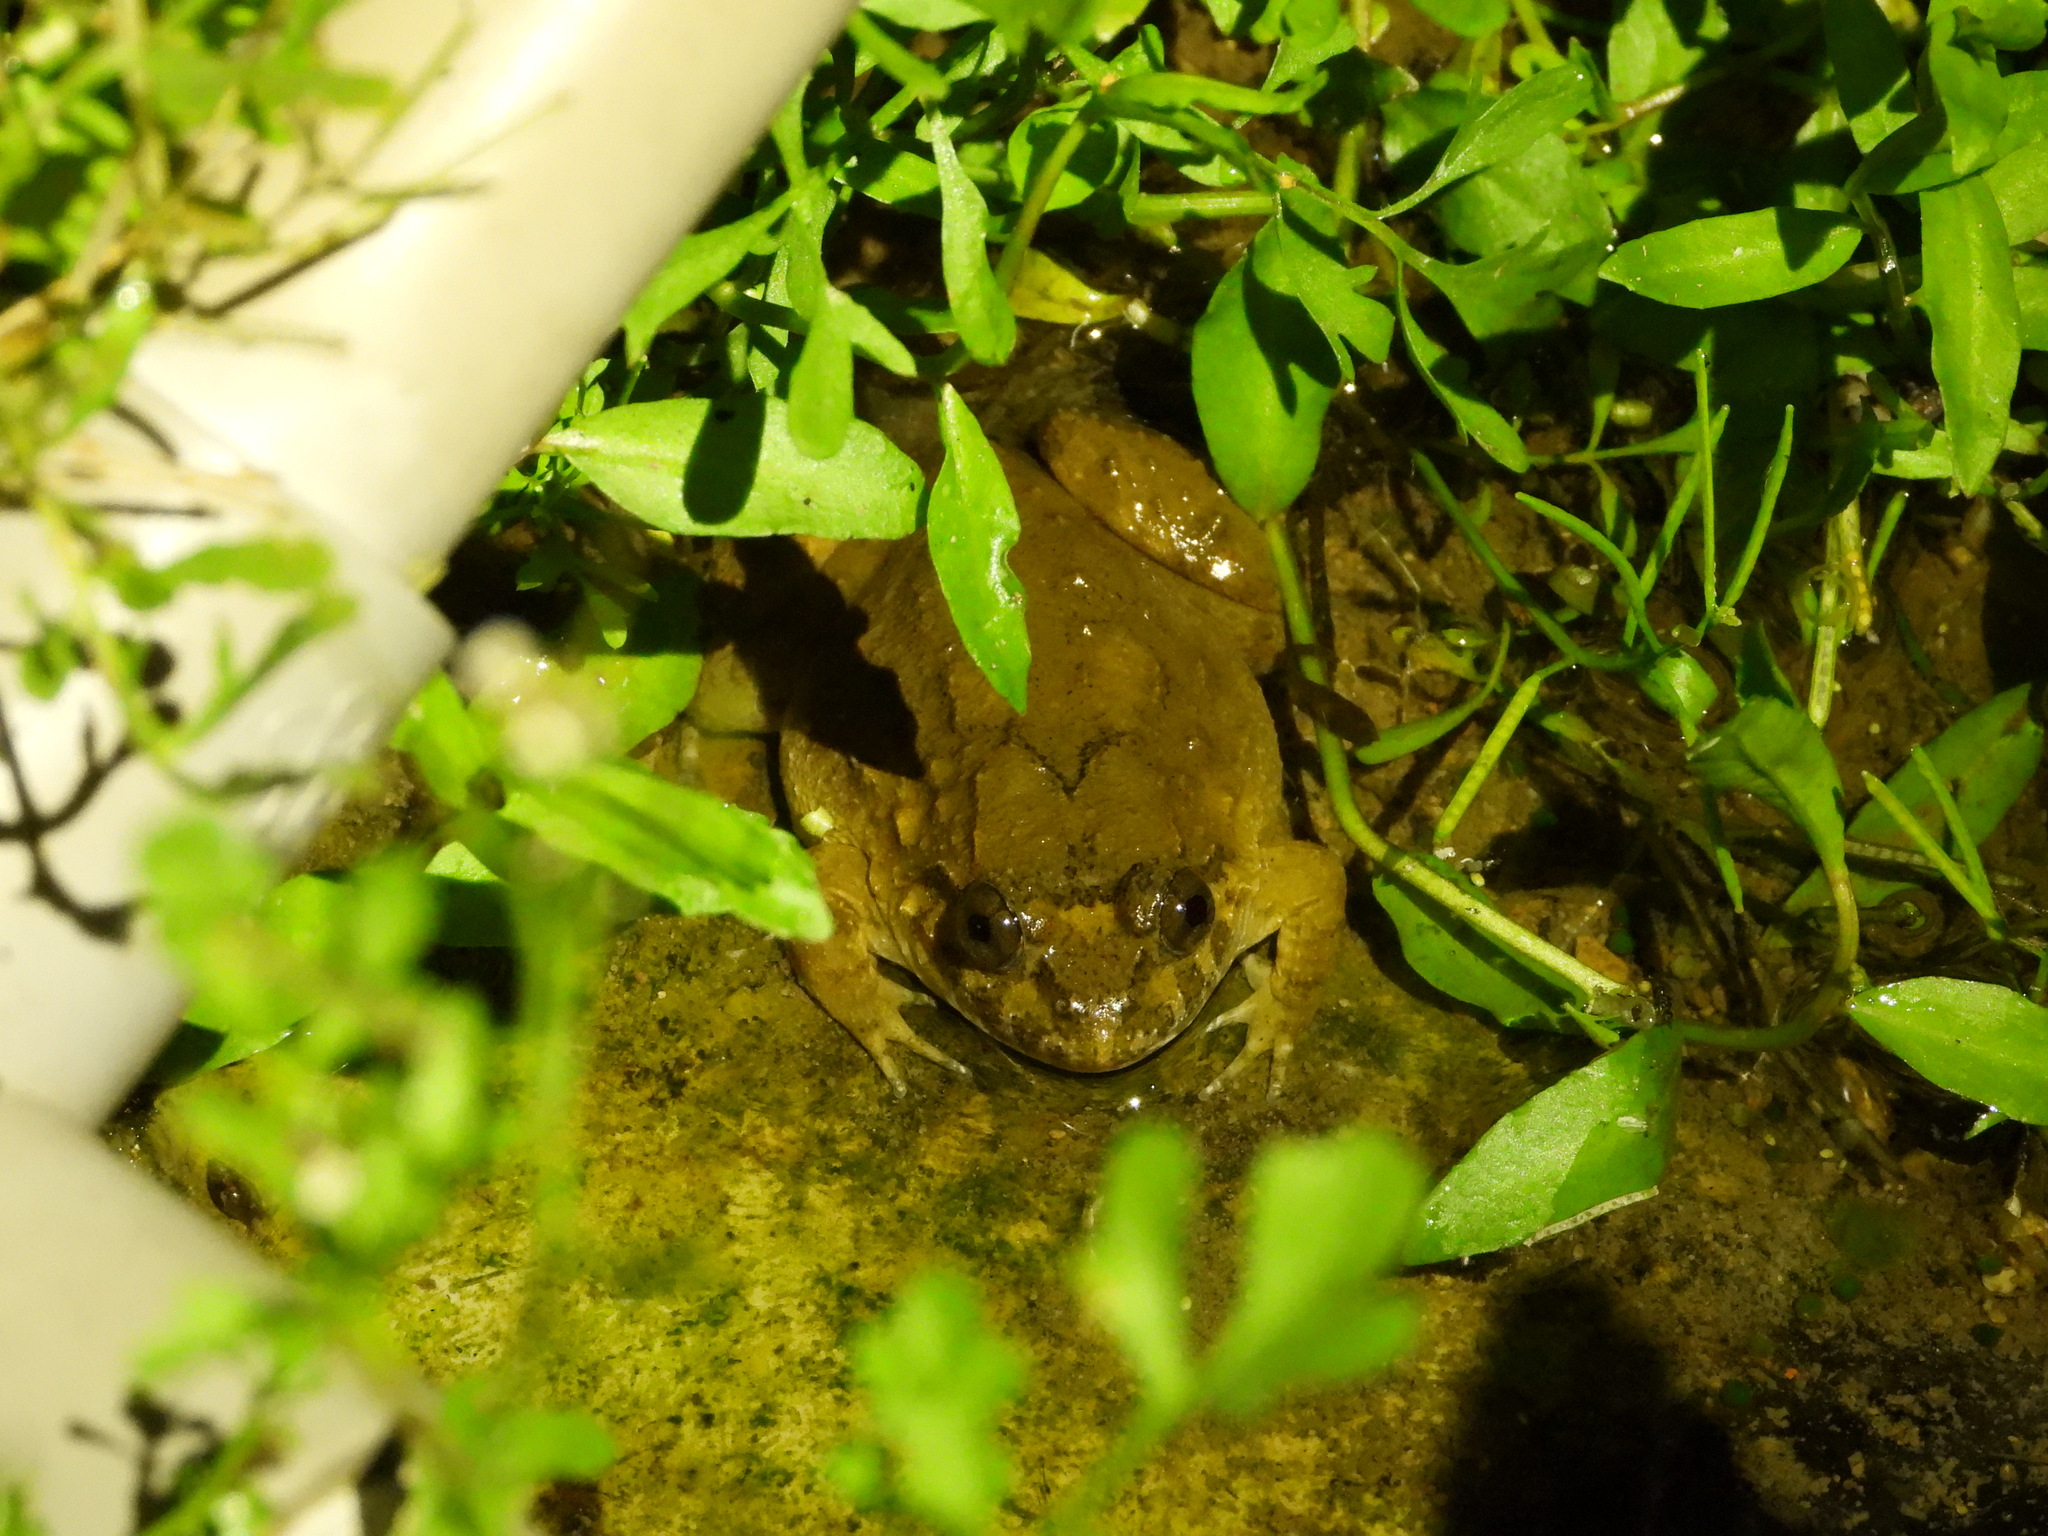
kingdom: Animalia
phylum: Chordata
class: Amphibia
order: Anura
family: Dicroglossidae
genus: Limnonectes
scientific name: Limnonectes fujianensis
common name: Fujian large-headed frog
